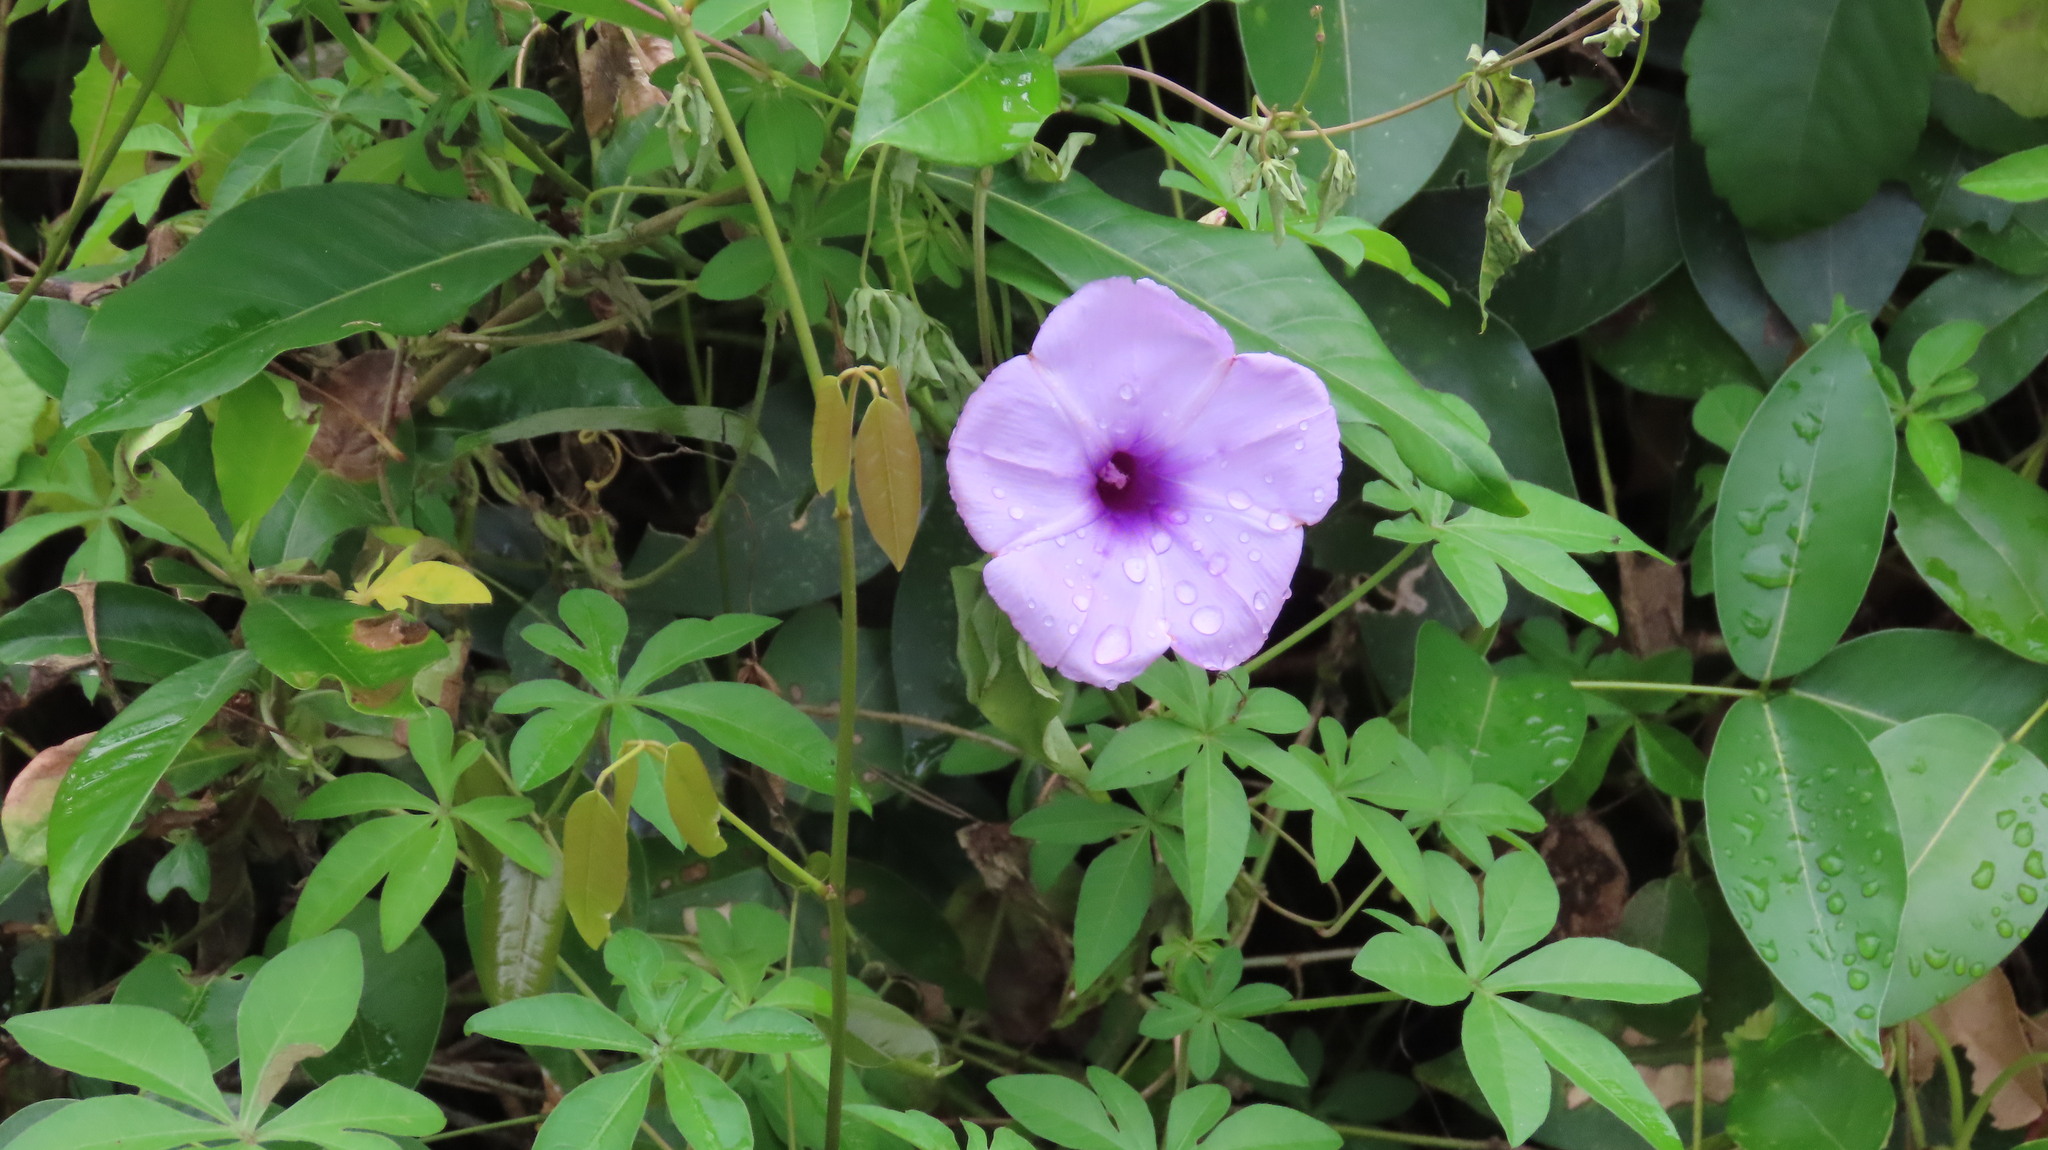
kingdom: Plantae
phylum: Tracheophyta
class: Magnoliopsida
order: Solanales
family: Convolvulaceae
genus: Ipomoea
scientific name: Ipomoea cairica
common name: Mile a minute vine
